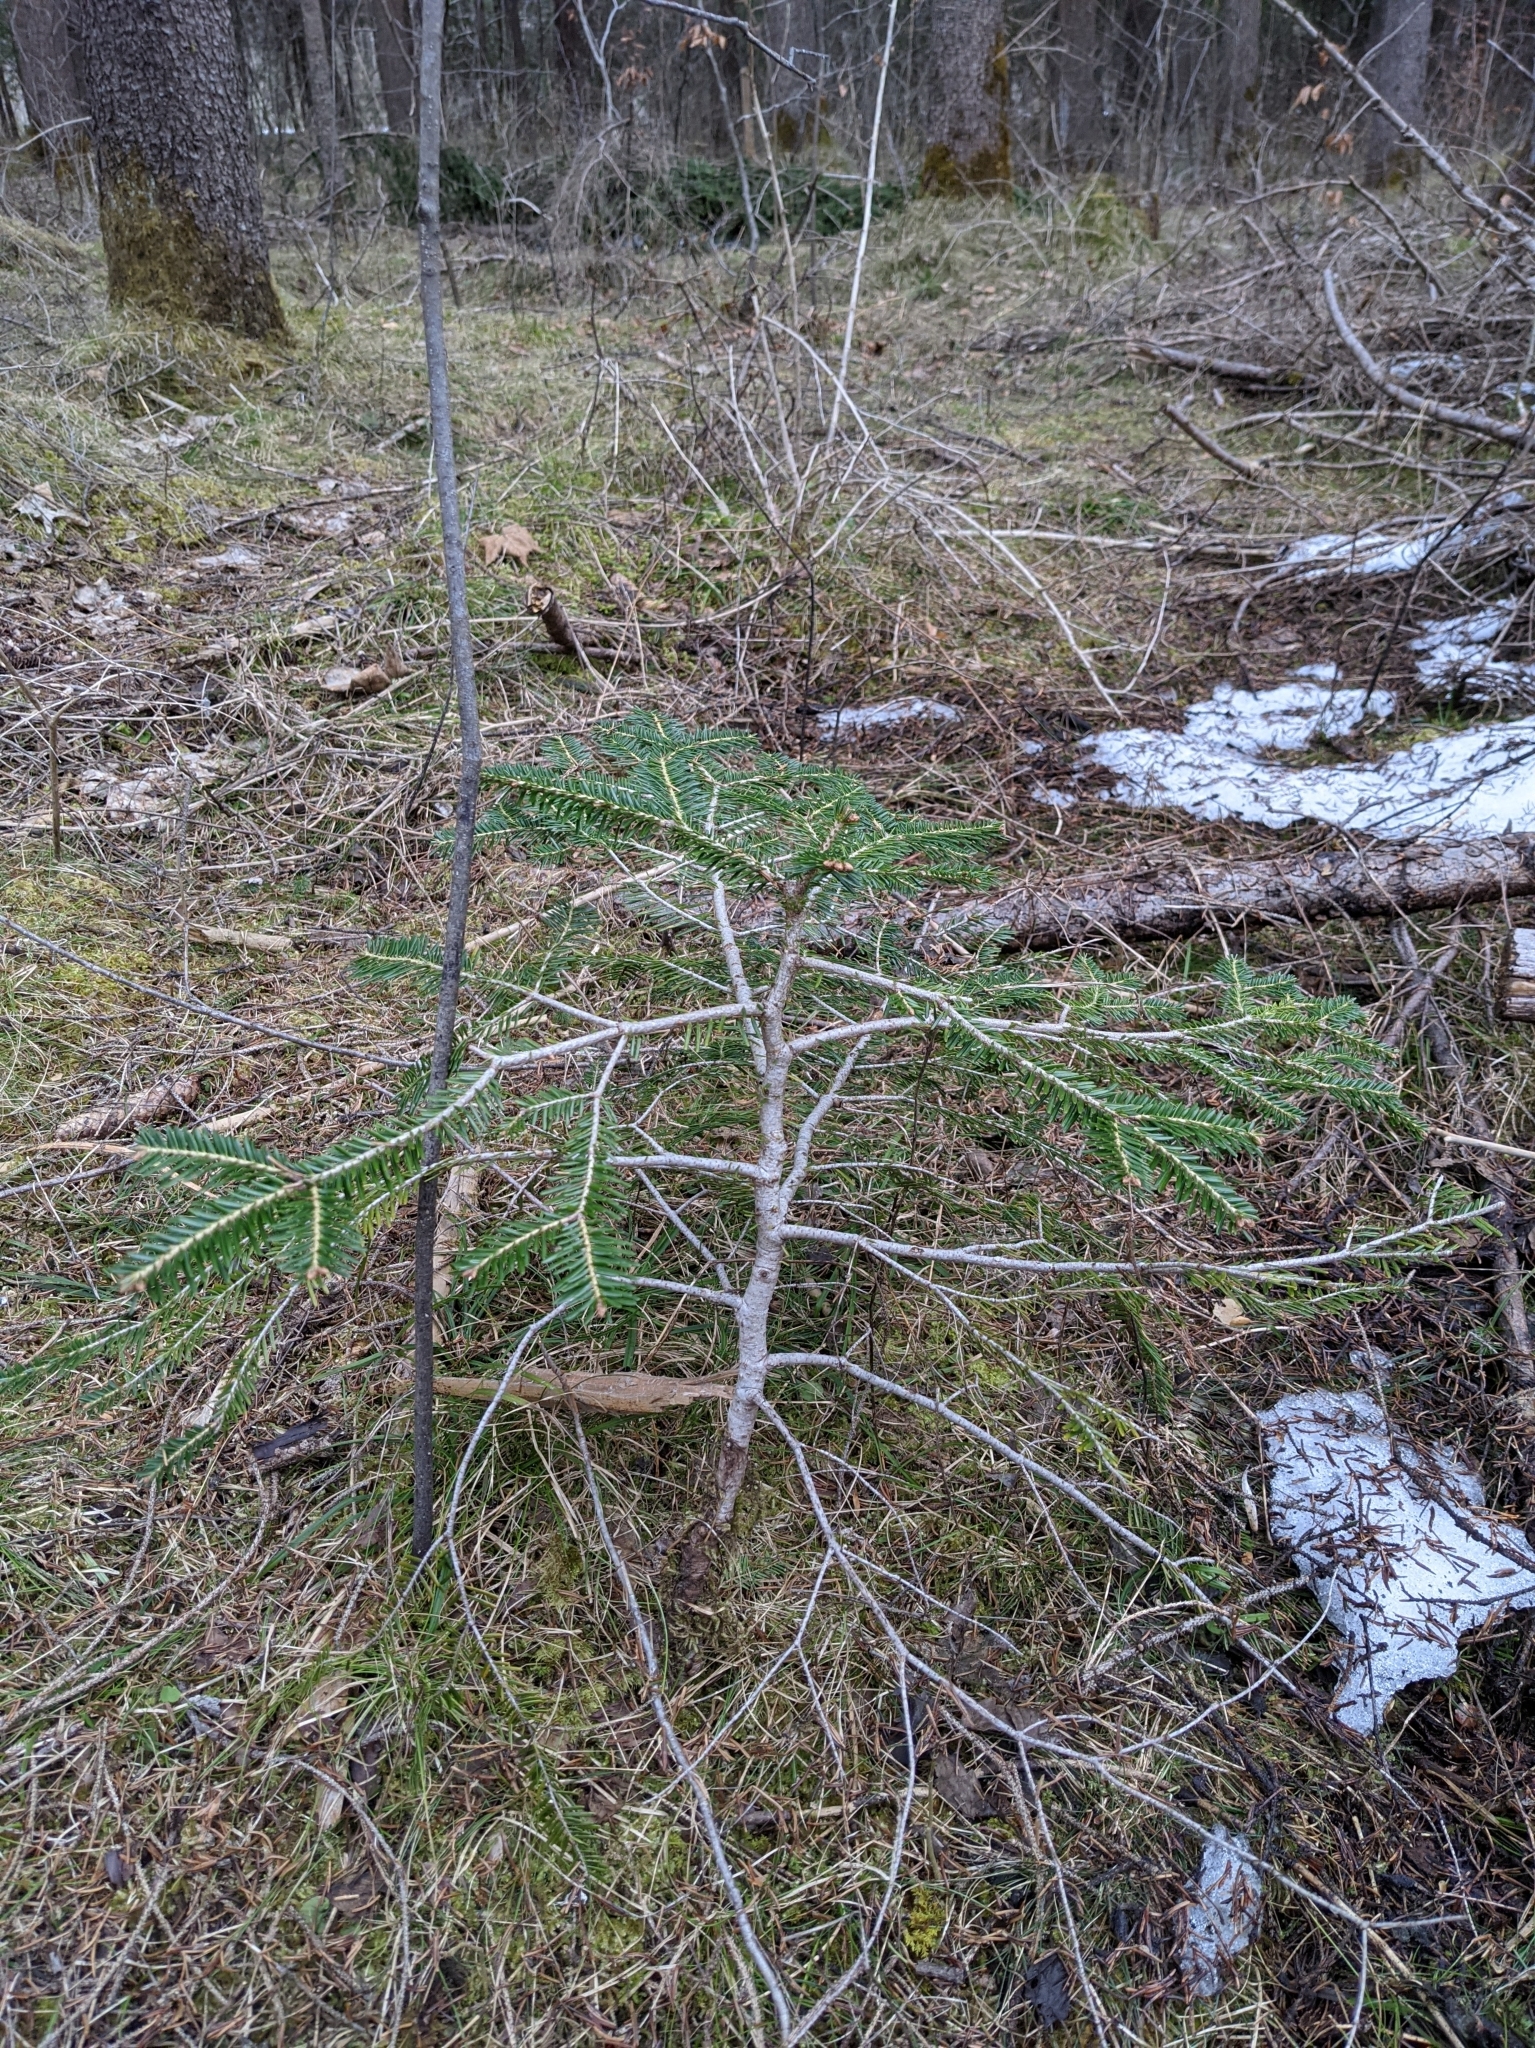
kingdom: Plantae
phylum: Tracheophyta
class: Pinopsida
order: Pinales
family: Pinaceae
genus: Abies
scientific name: Abies alba
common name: Silver fir
